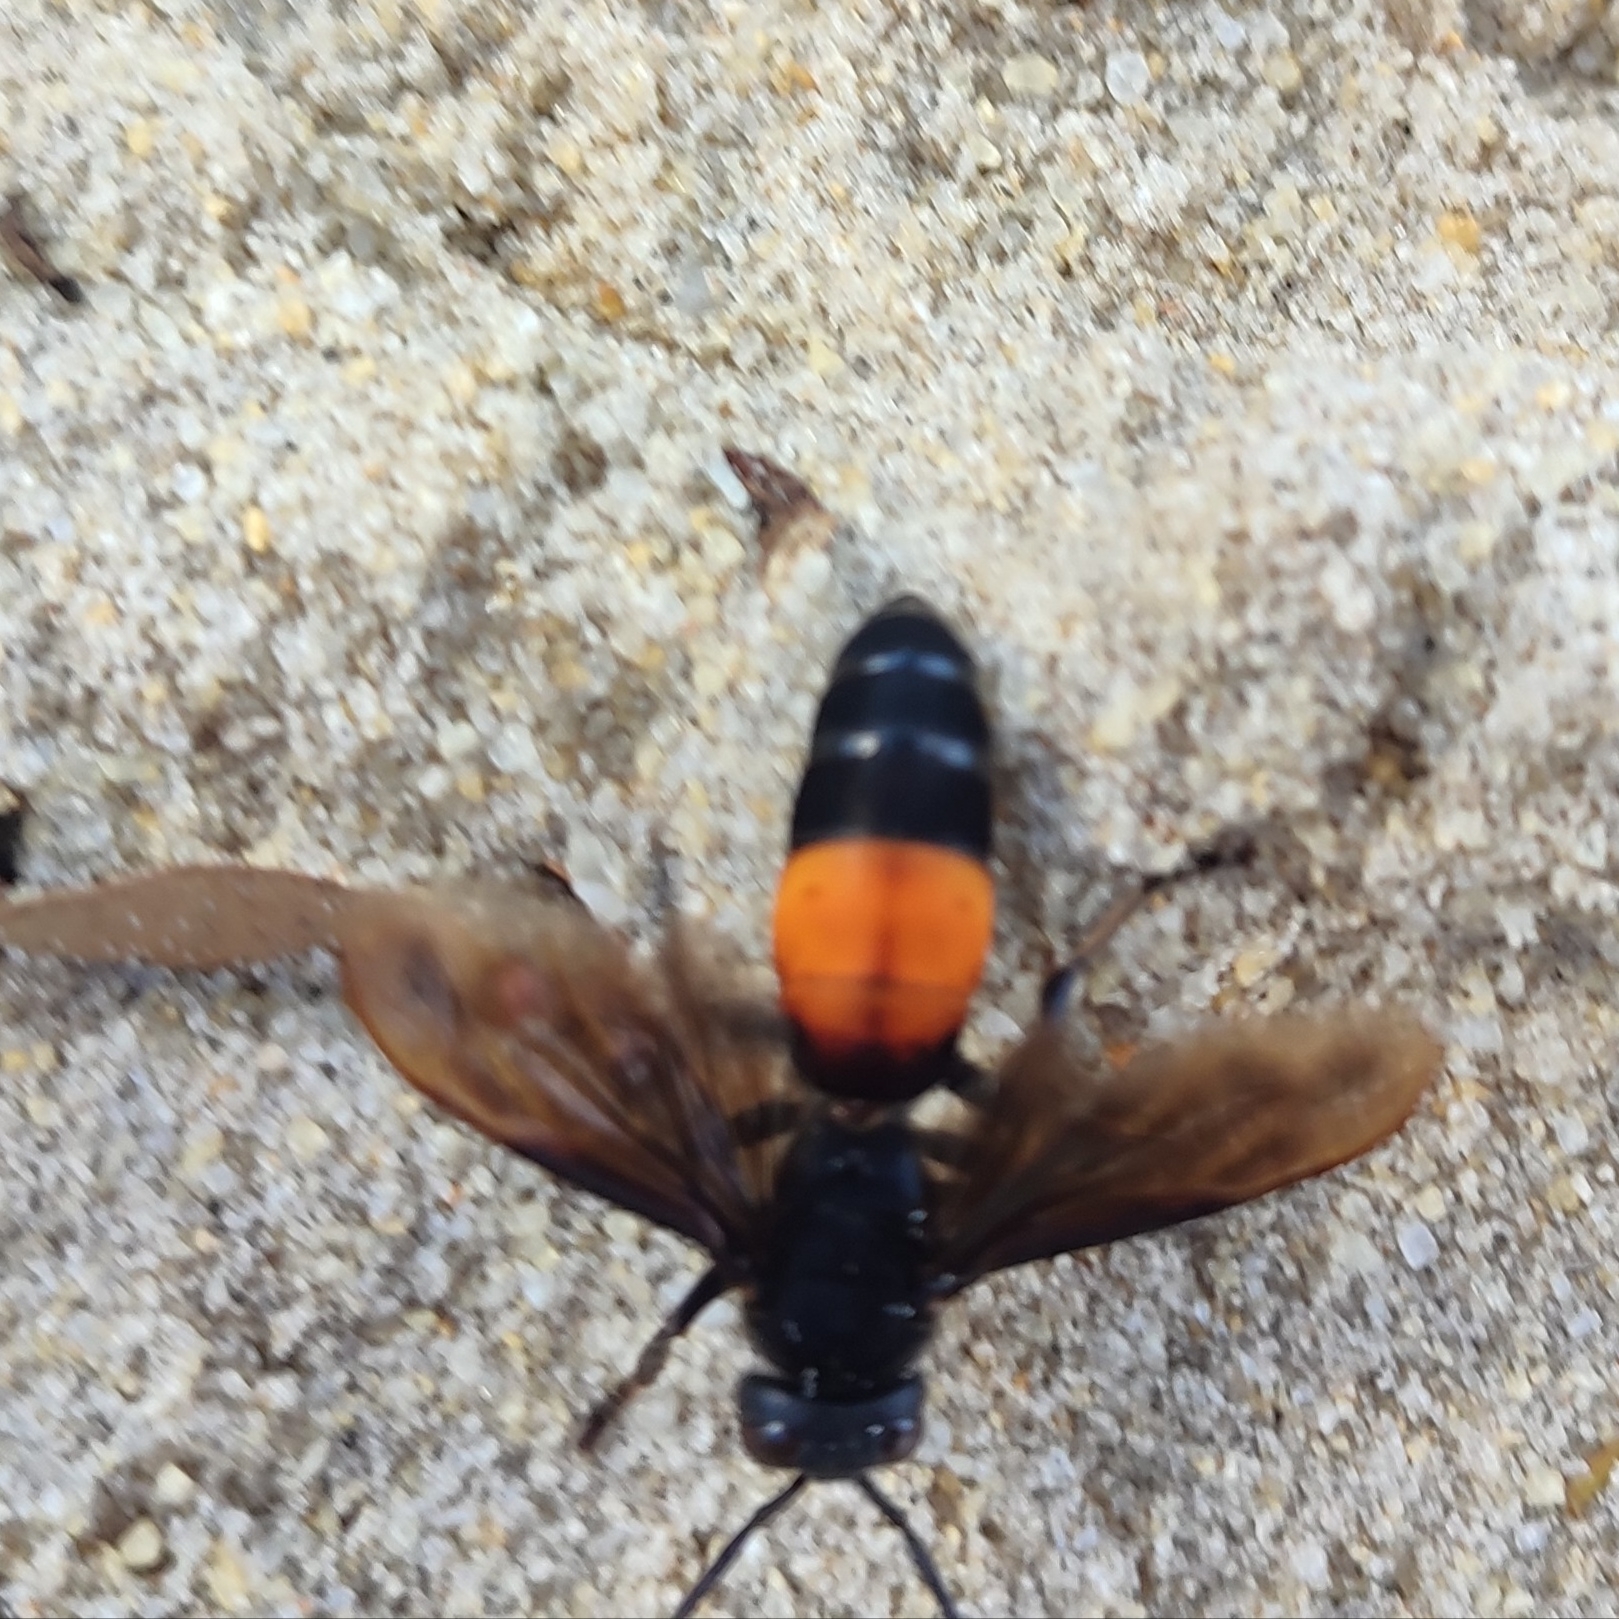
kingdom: Animalia
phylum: Arthropoda
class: Insecta
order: Hymenoptera
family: Vespidae
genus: Vespa
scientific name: Vespa affinis
